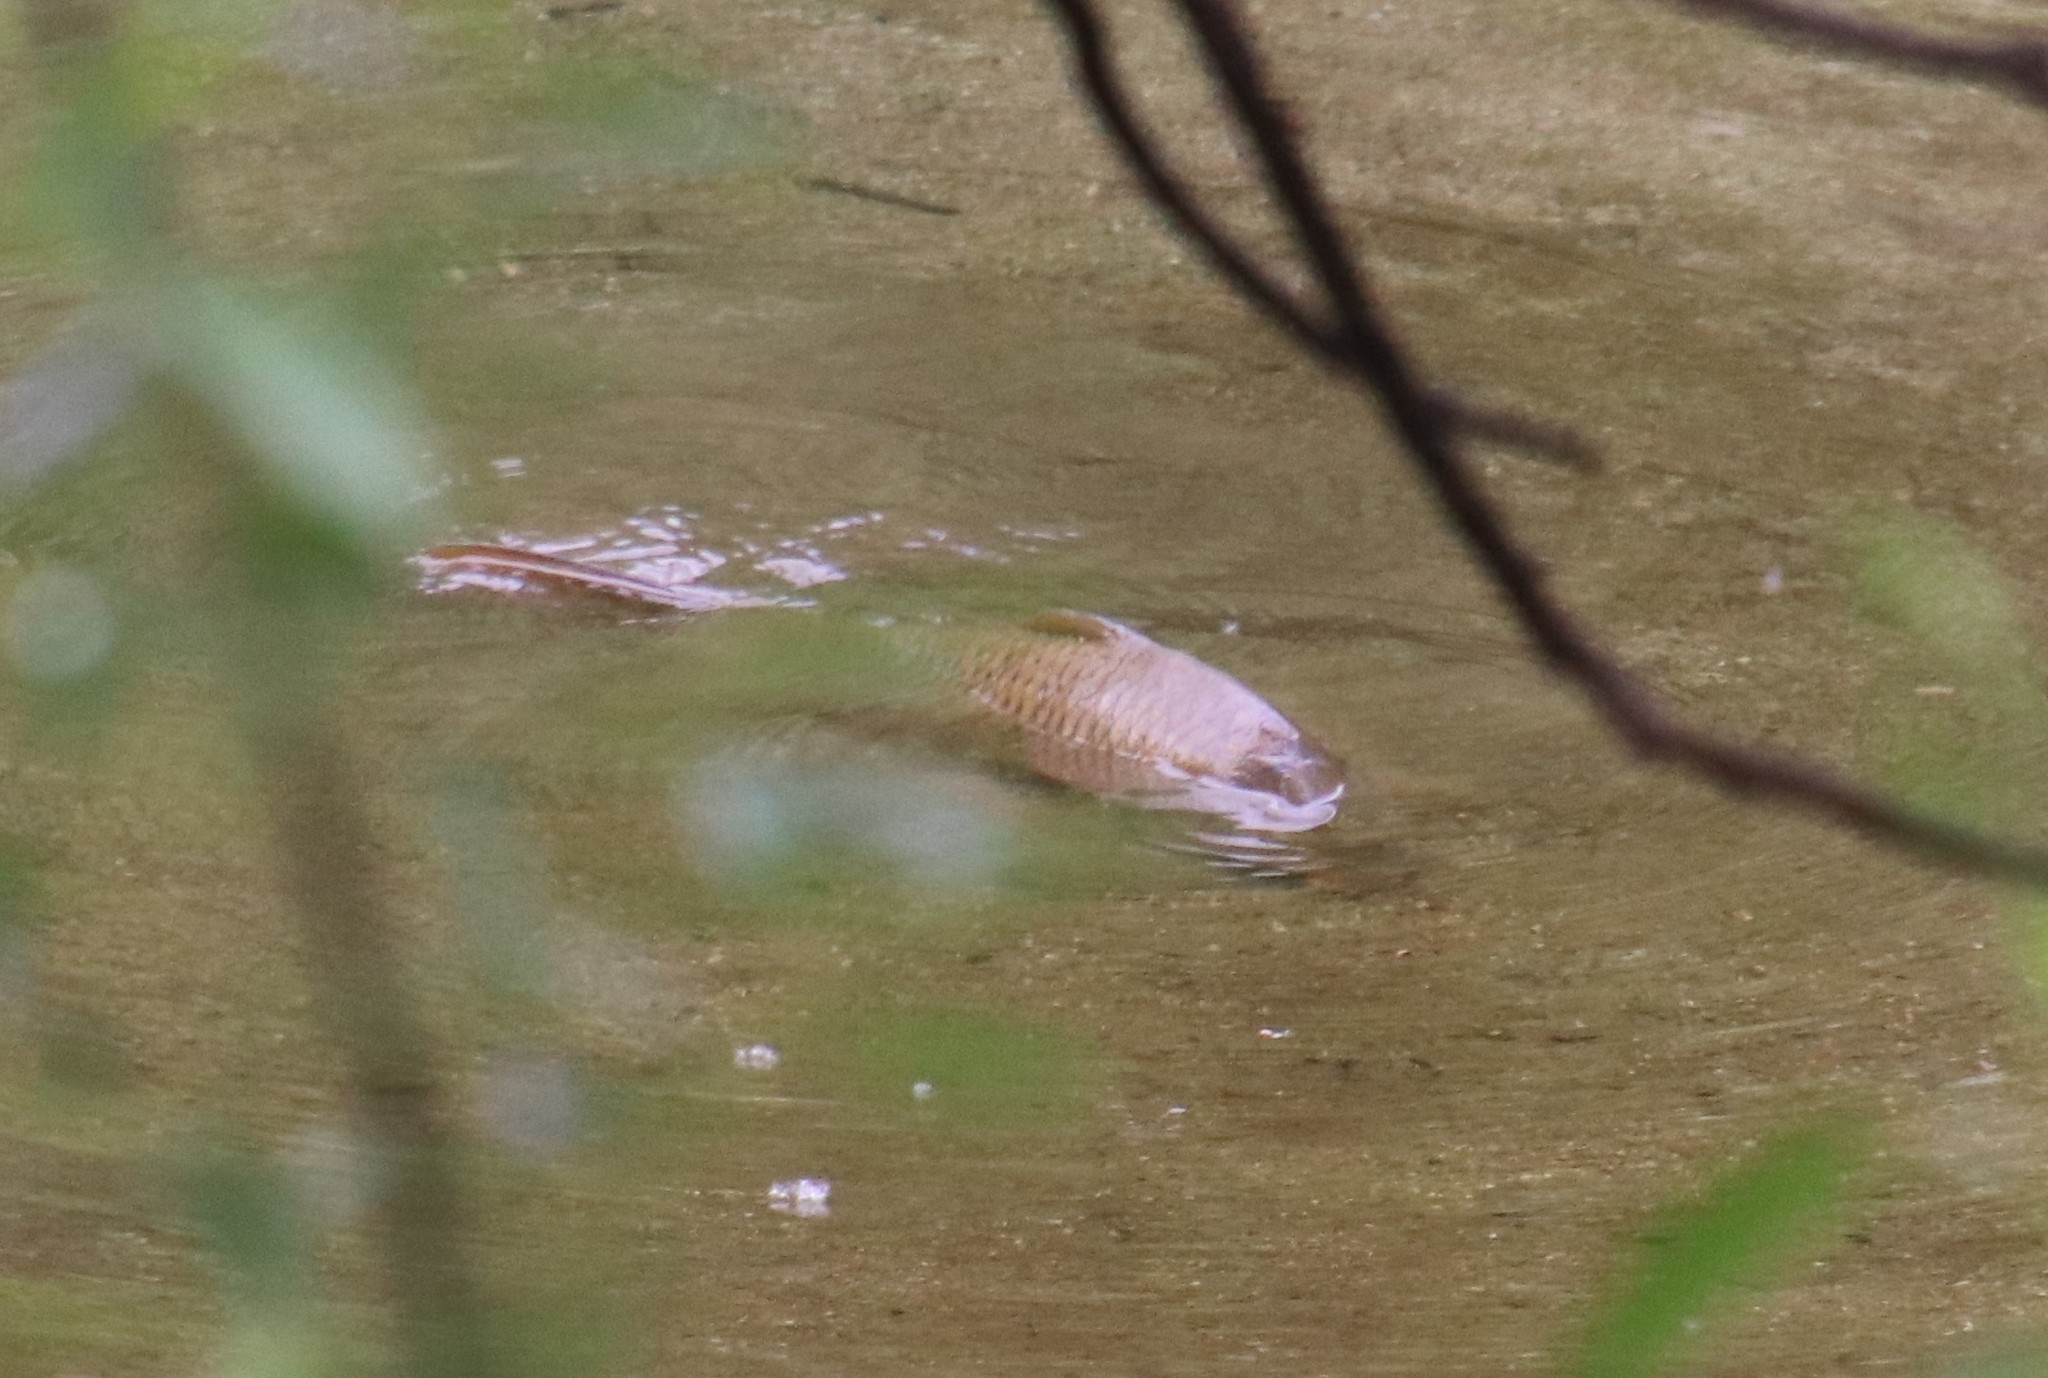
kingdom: Animalia
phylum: Chordata
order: Cypriniformes
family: Cyprinidae
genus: Cyprinus
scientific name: Cyprinus carpio
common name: Common carp
